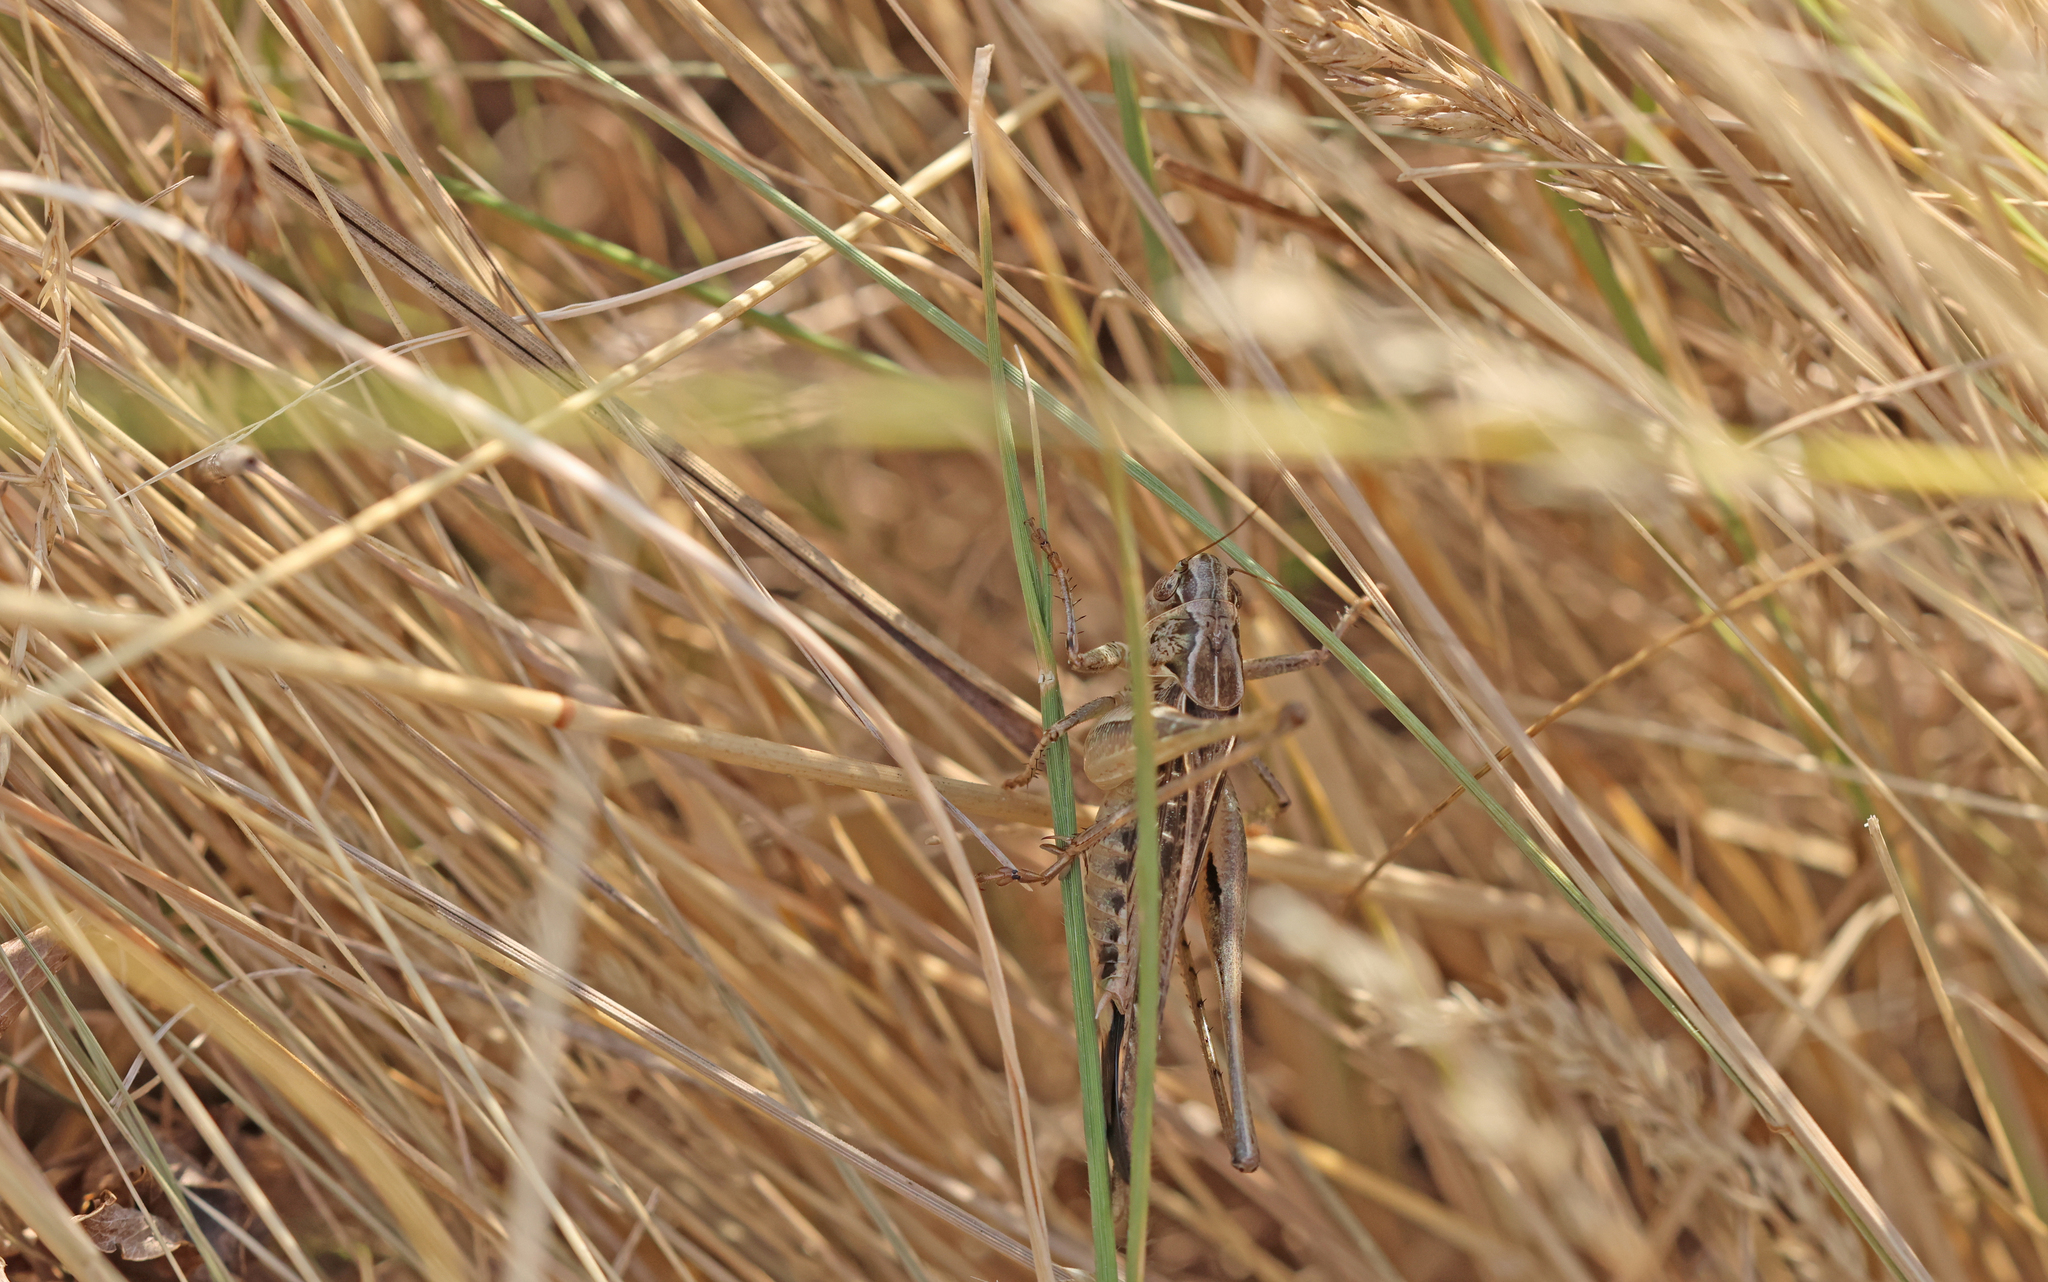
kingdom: Animalia
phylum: Arthropoda
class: Insecta
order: Orthoptera
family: Tettigoniidae
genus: Platycleis
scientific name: Platycleis affinis
